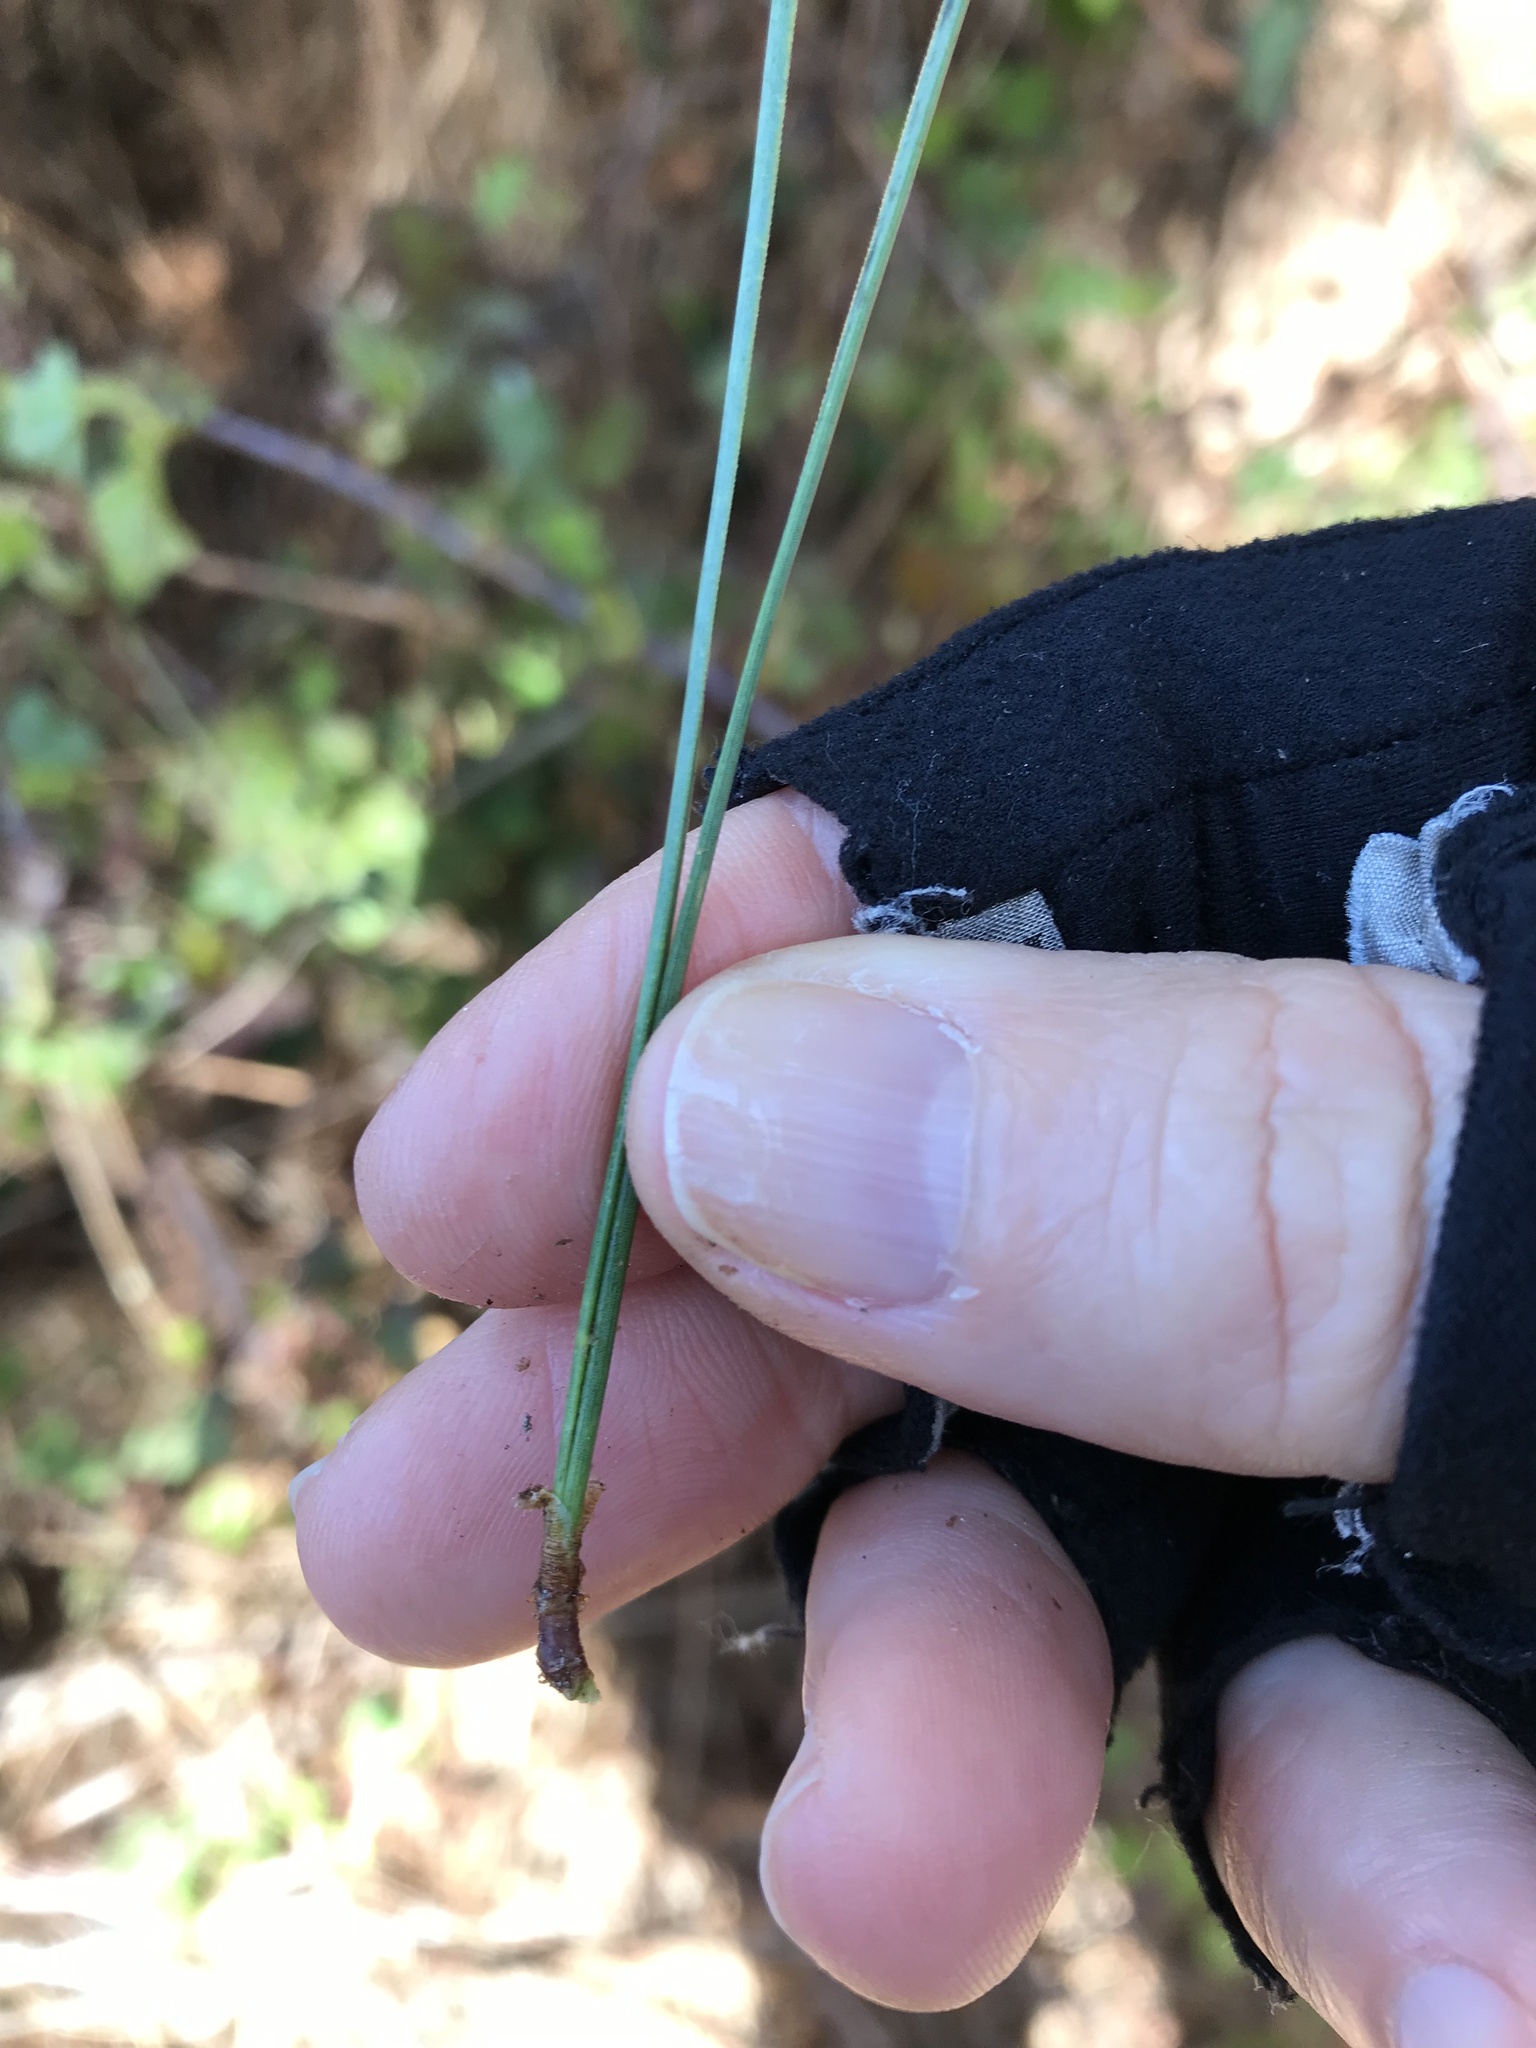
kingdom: Plantae
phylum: Tracheophyta
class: Pinopsida
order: Pinales
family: Pinaceae
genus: Pinus
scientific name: Pinus muricata
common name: Bishop pine
